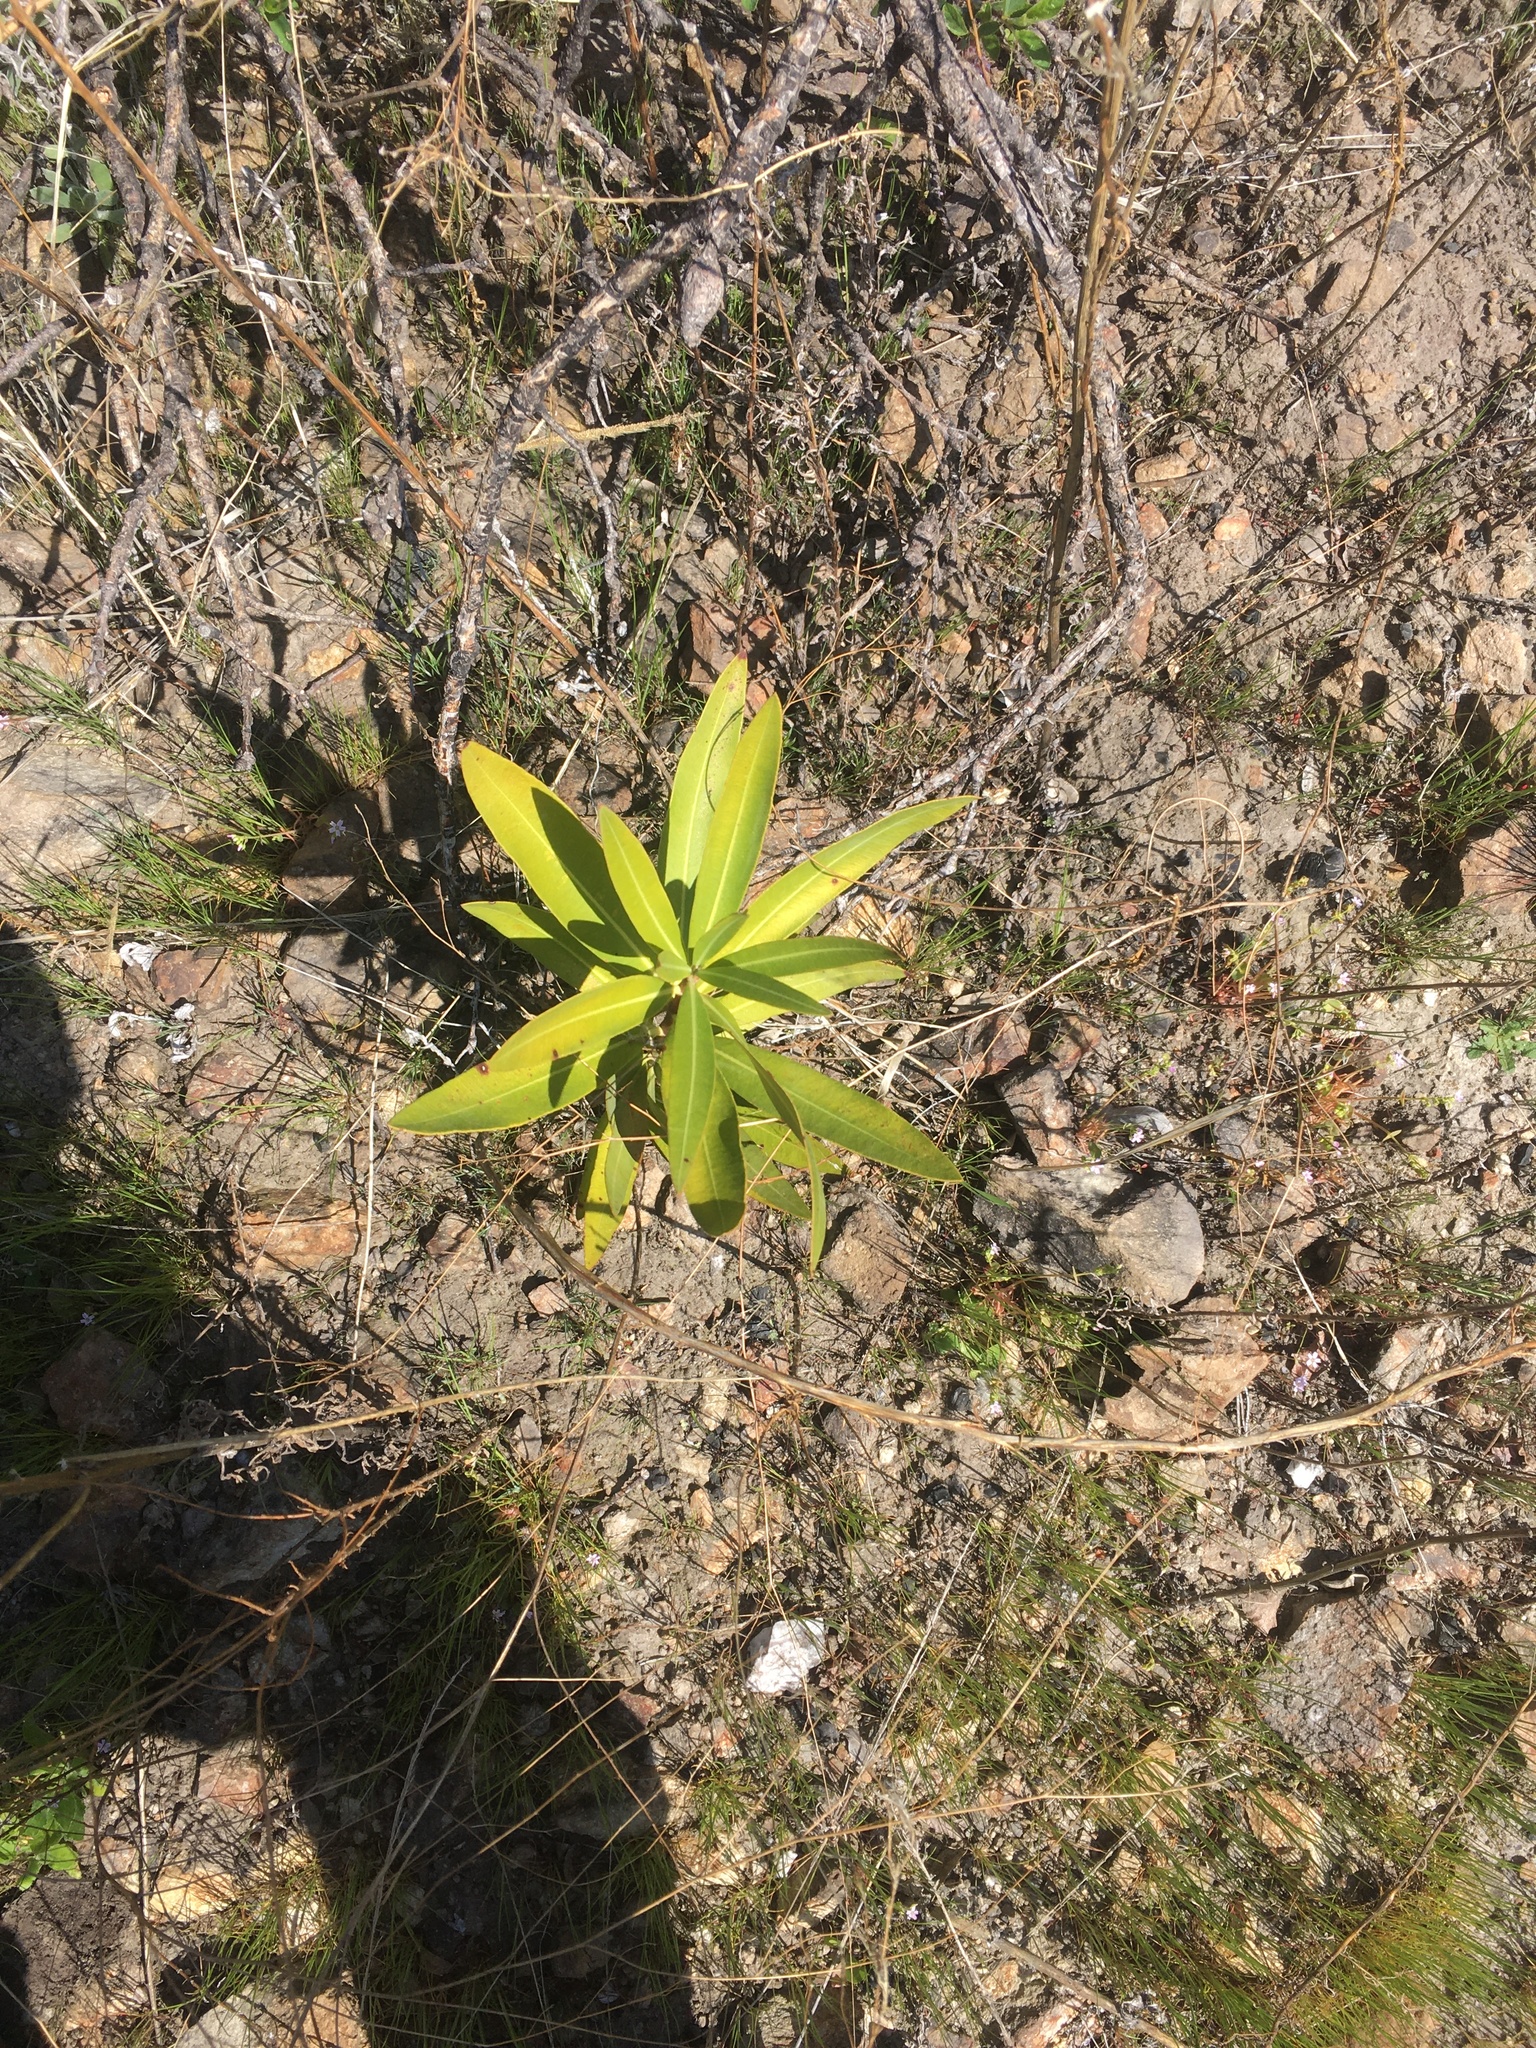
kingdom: Plantae
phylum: Tracheophyta
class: Magnoliopsida
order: Gentianales
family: Apocynaceae
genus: Nerium
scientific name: Nerium oleander
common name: Oleander
